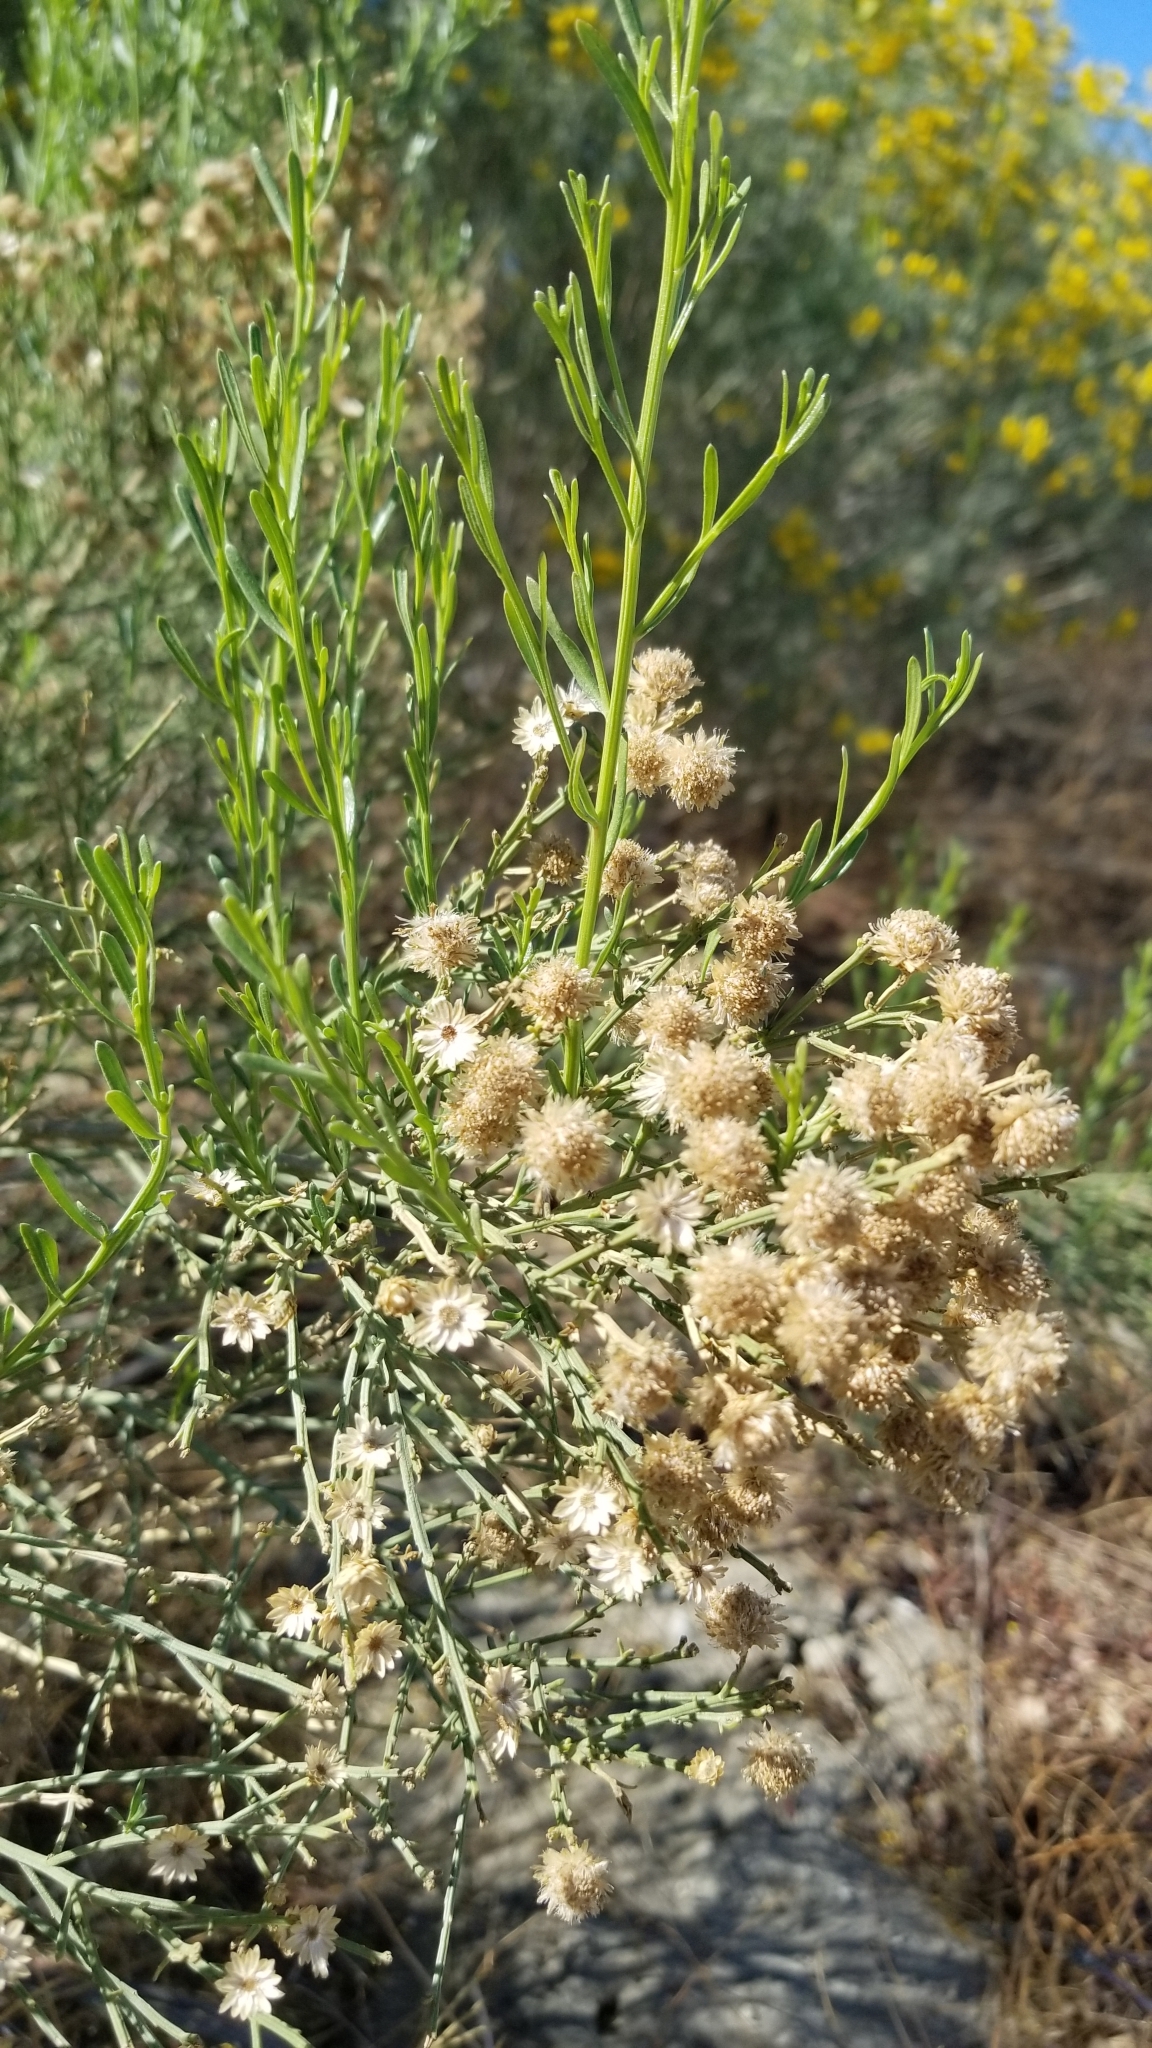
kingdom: Plantae
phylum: Tracheophyta
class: Magnoliopsida
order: Asterales
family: Asteraceae
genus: Baccharis
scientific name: Baccharis sarothroides
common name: Desert-broom
